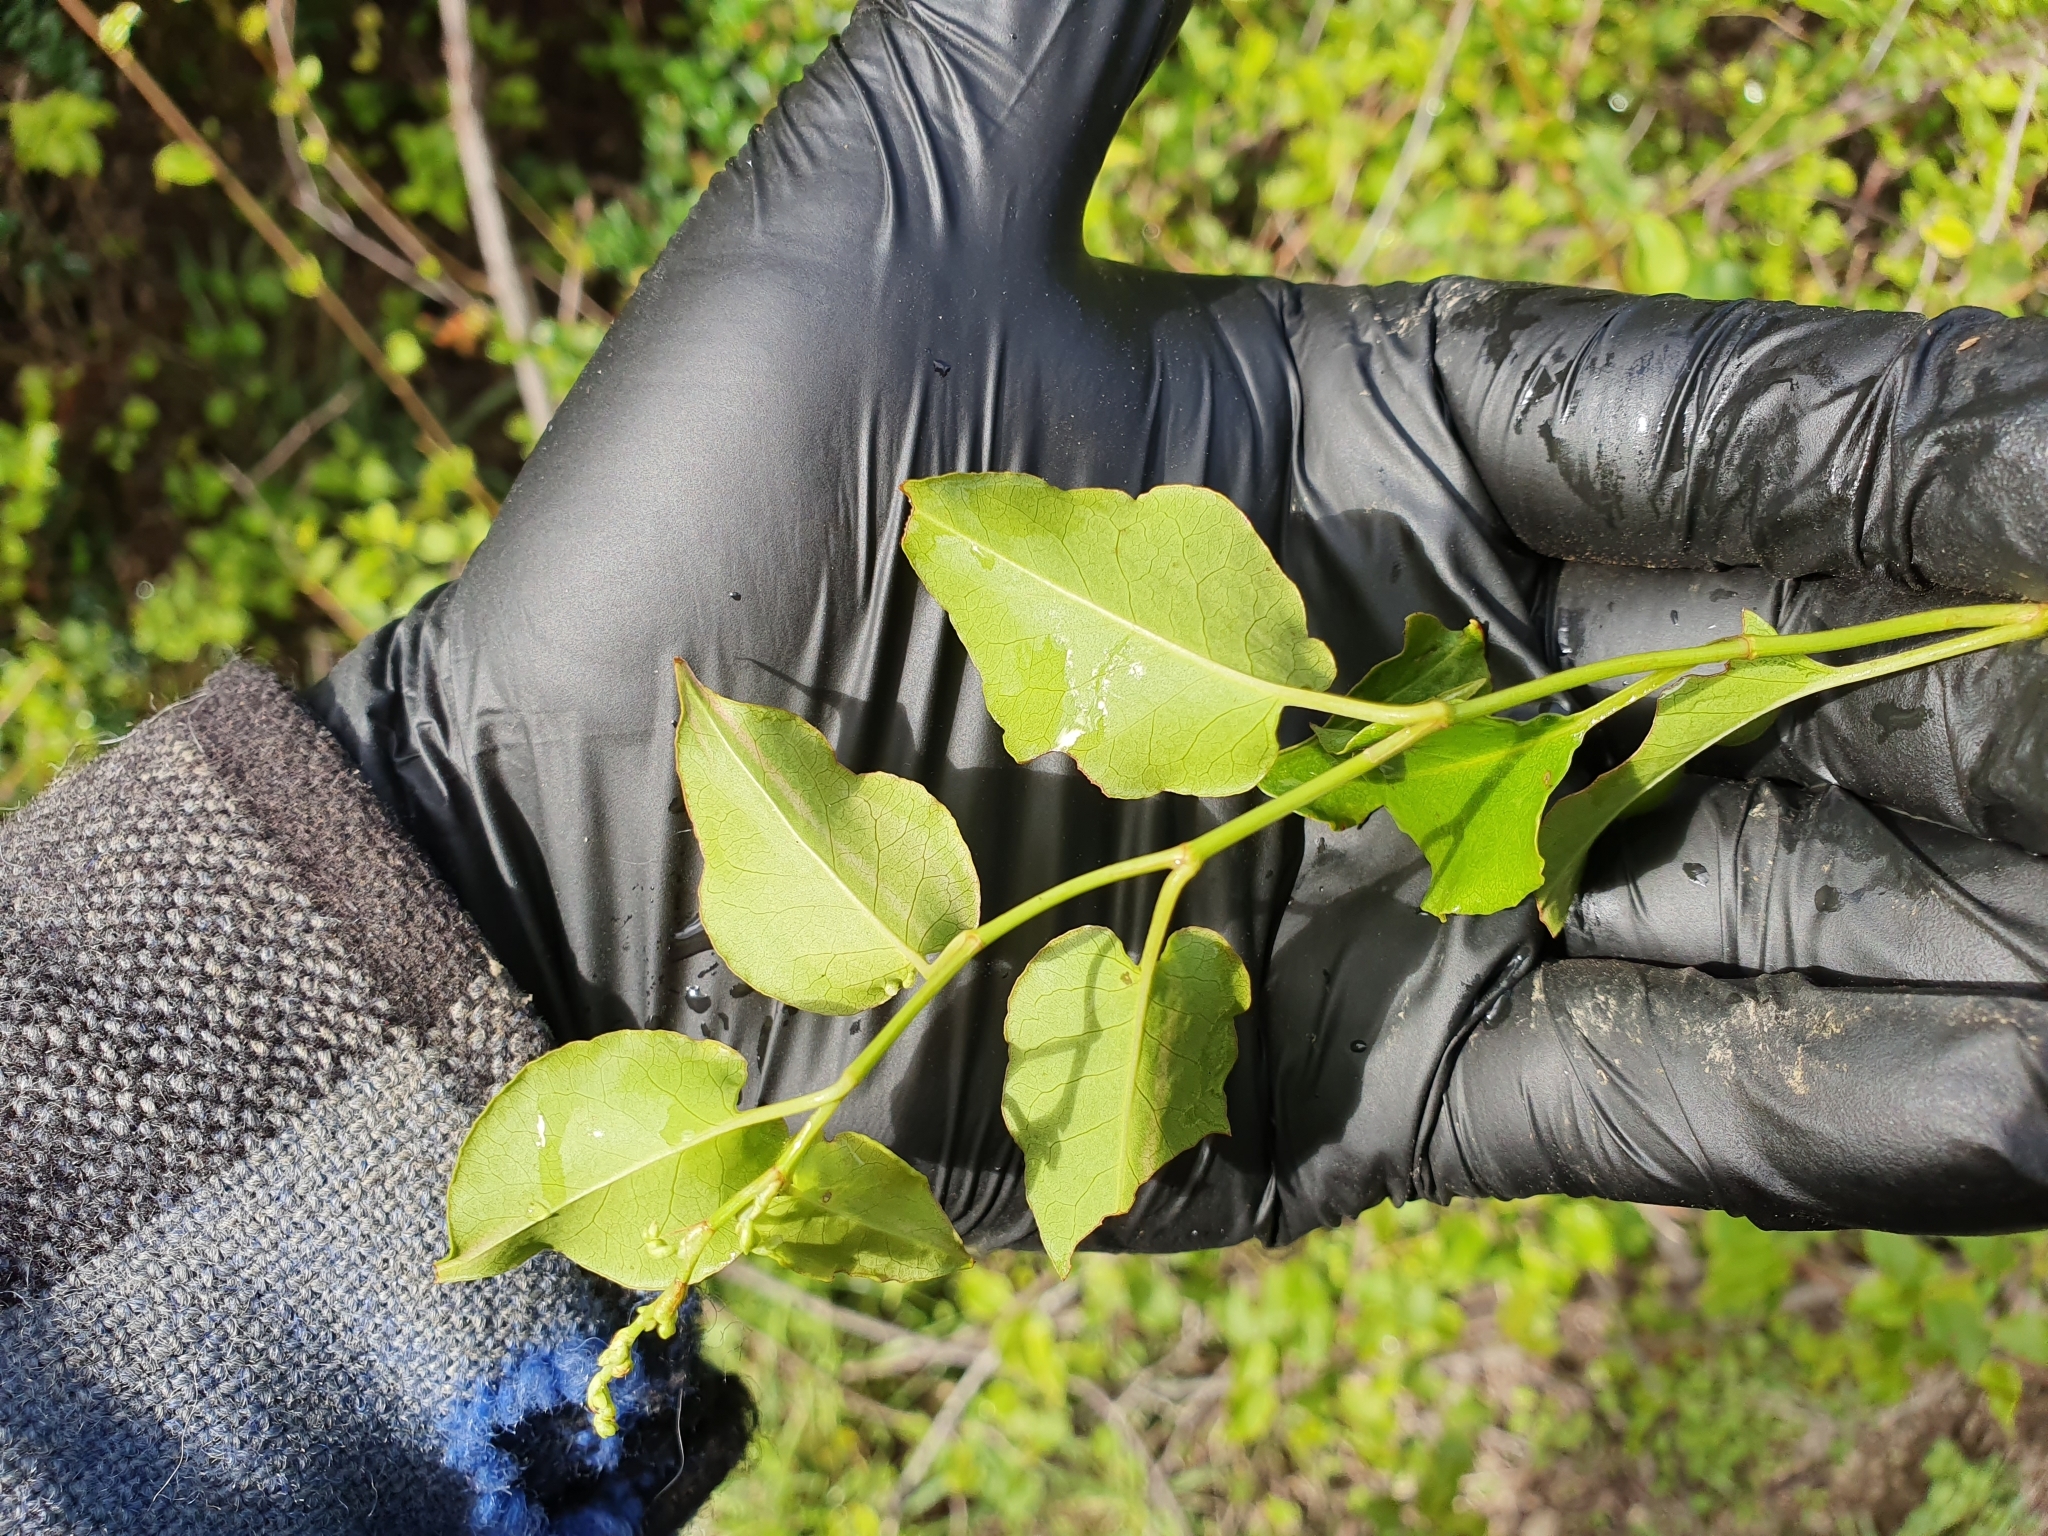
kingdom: Plantae
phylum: Tracheophyta
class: Magnoliopsida
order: Caryophyllales
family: Polygonaceae
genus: Muehlenbeckia
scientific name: Muehlenbeckia australis
